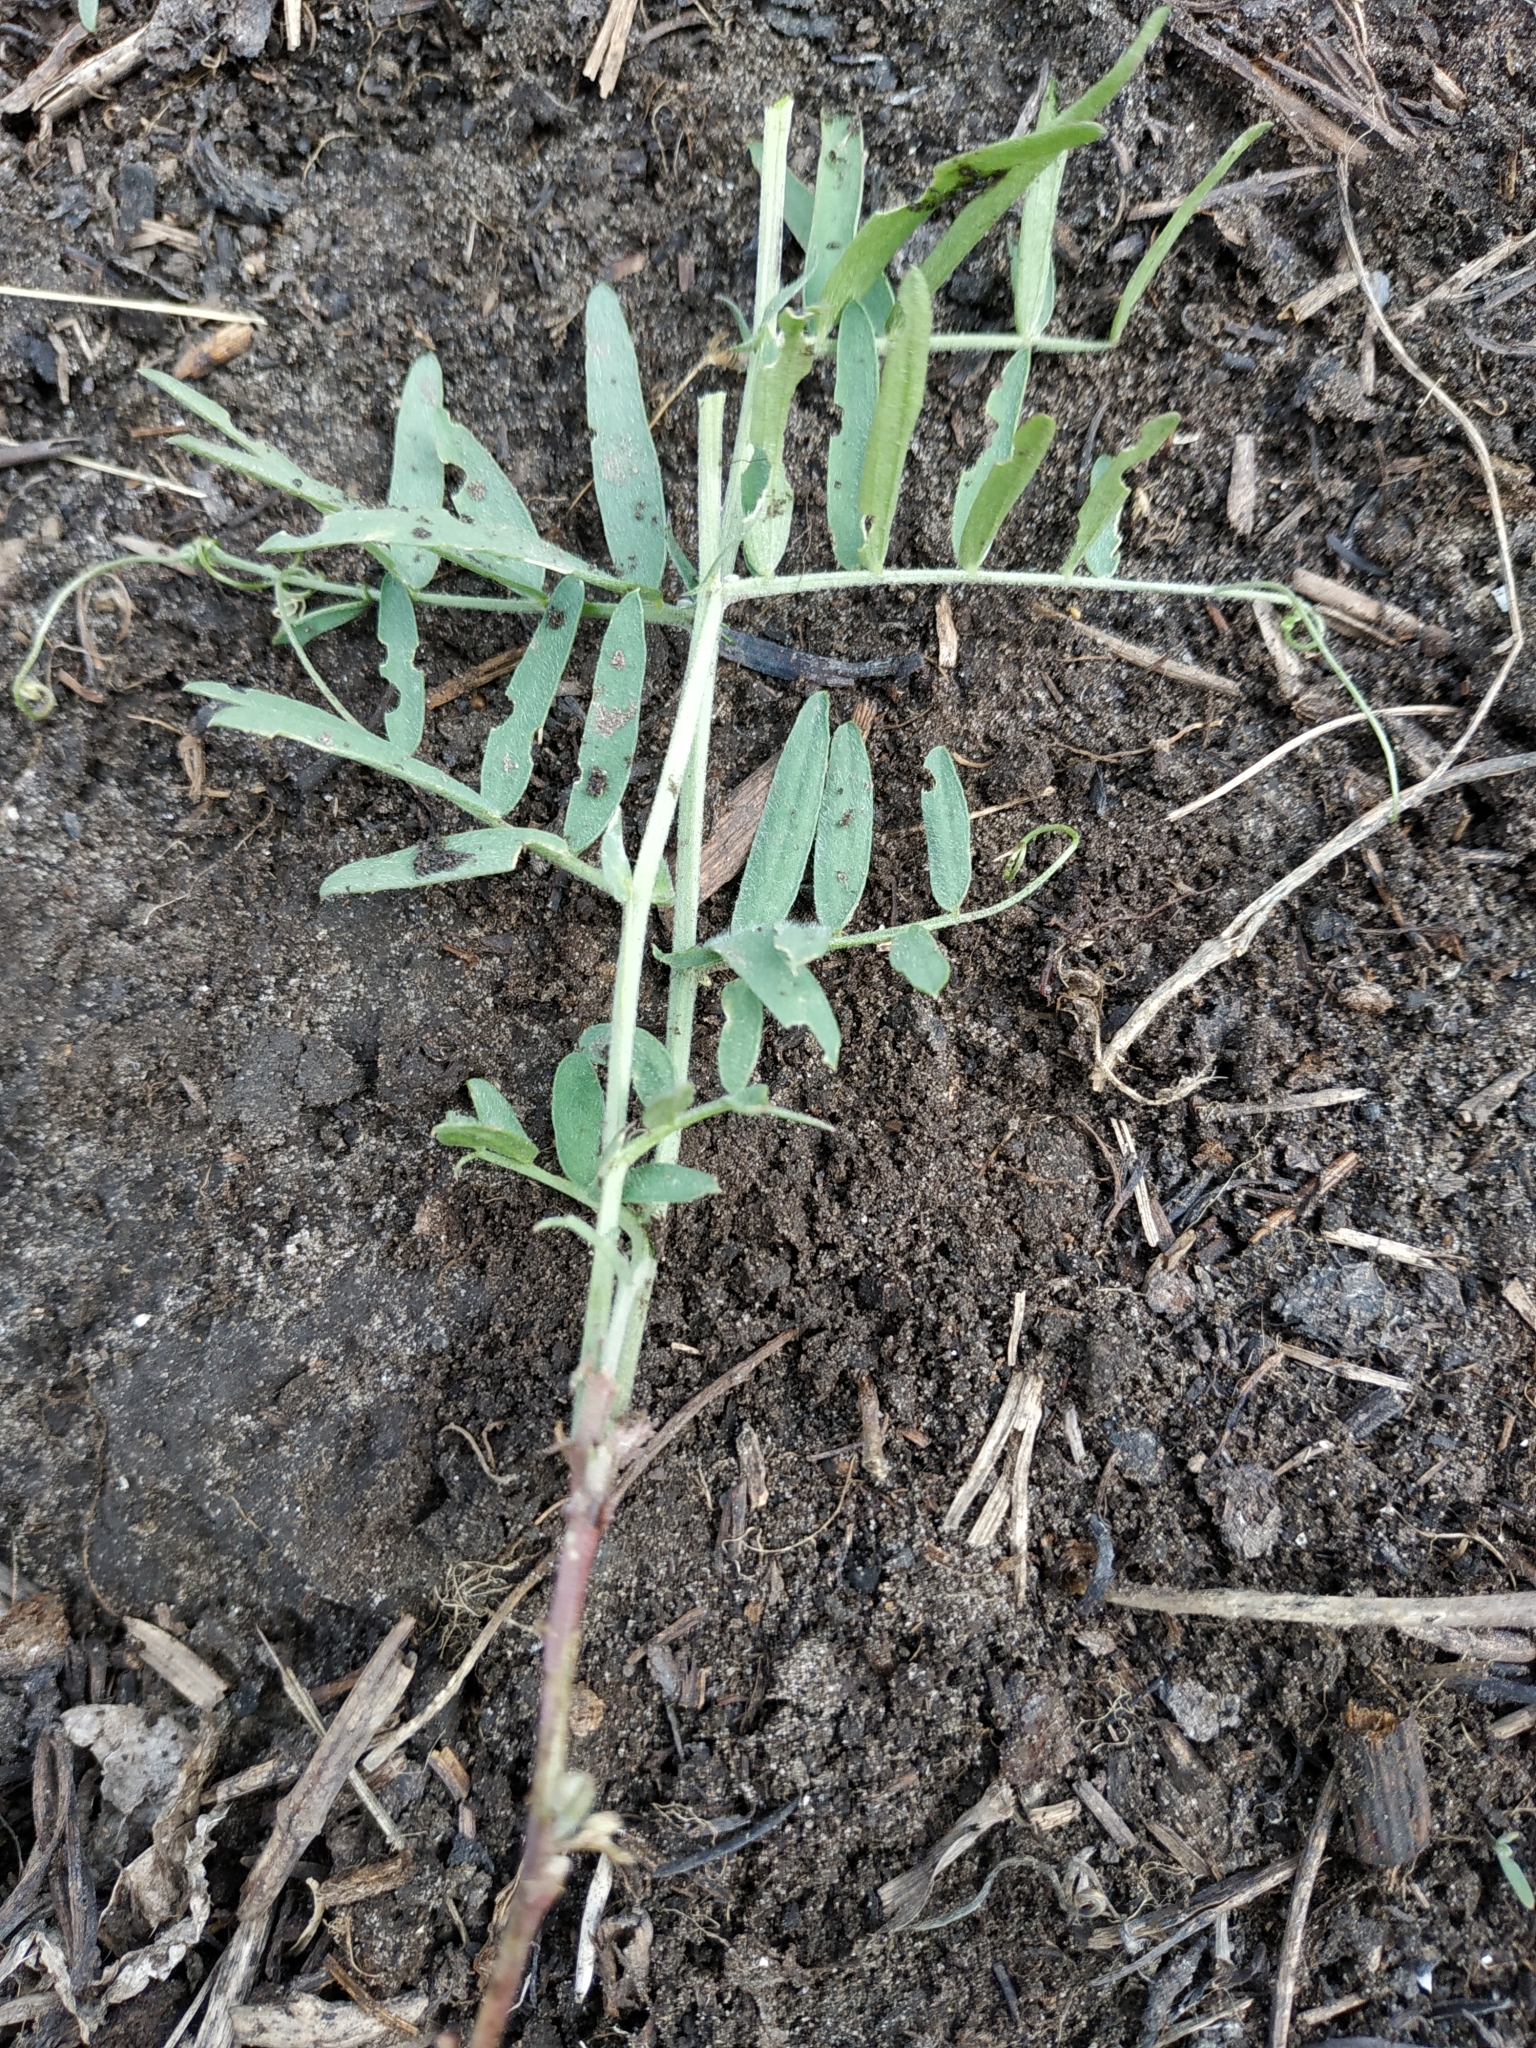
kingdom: Plantae
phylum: Tracheophyta
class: Magnoliopsida
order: Fabales
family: Fabaceae
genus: Vicia
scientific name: Vicia sativa
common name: Garden vetch
